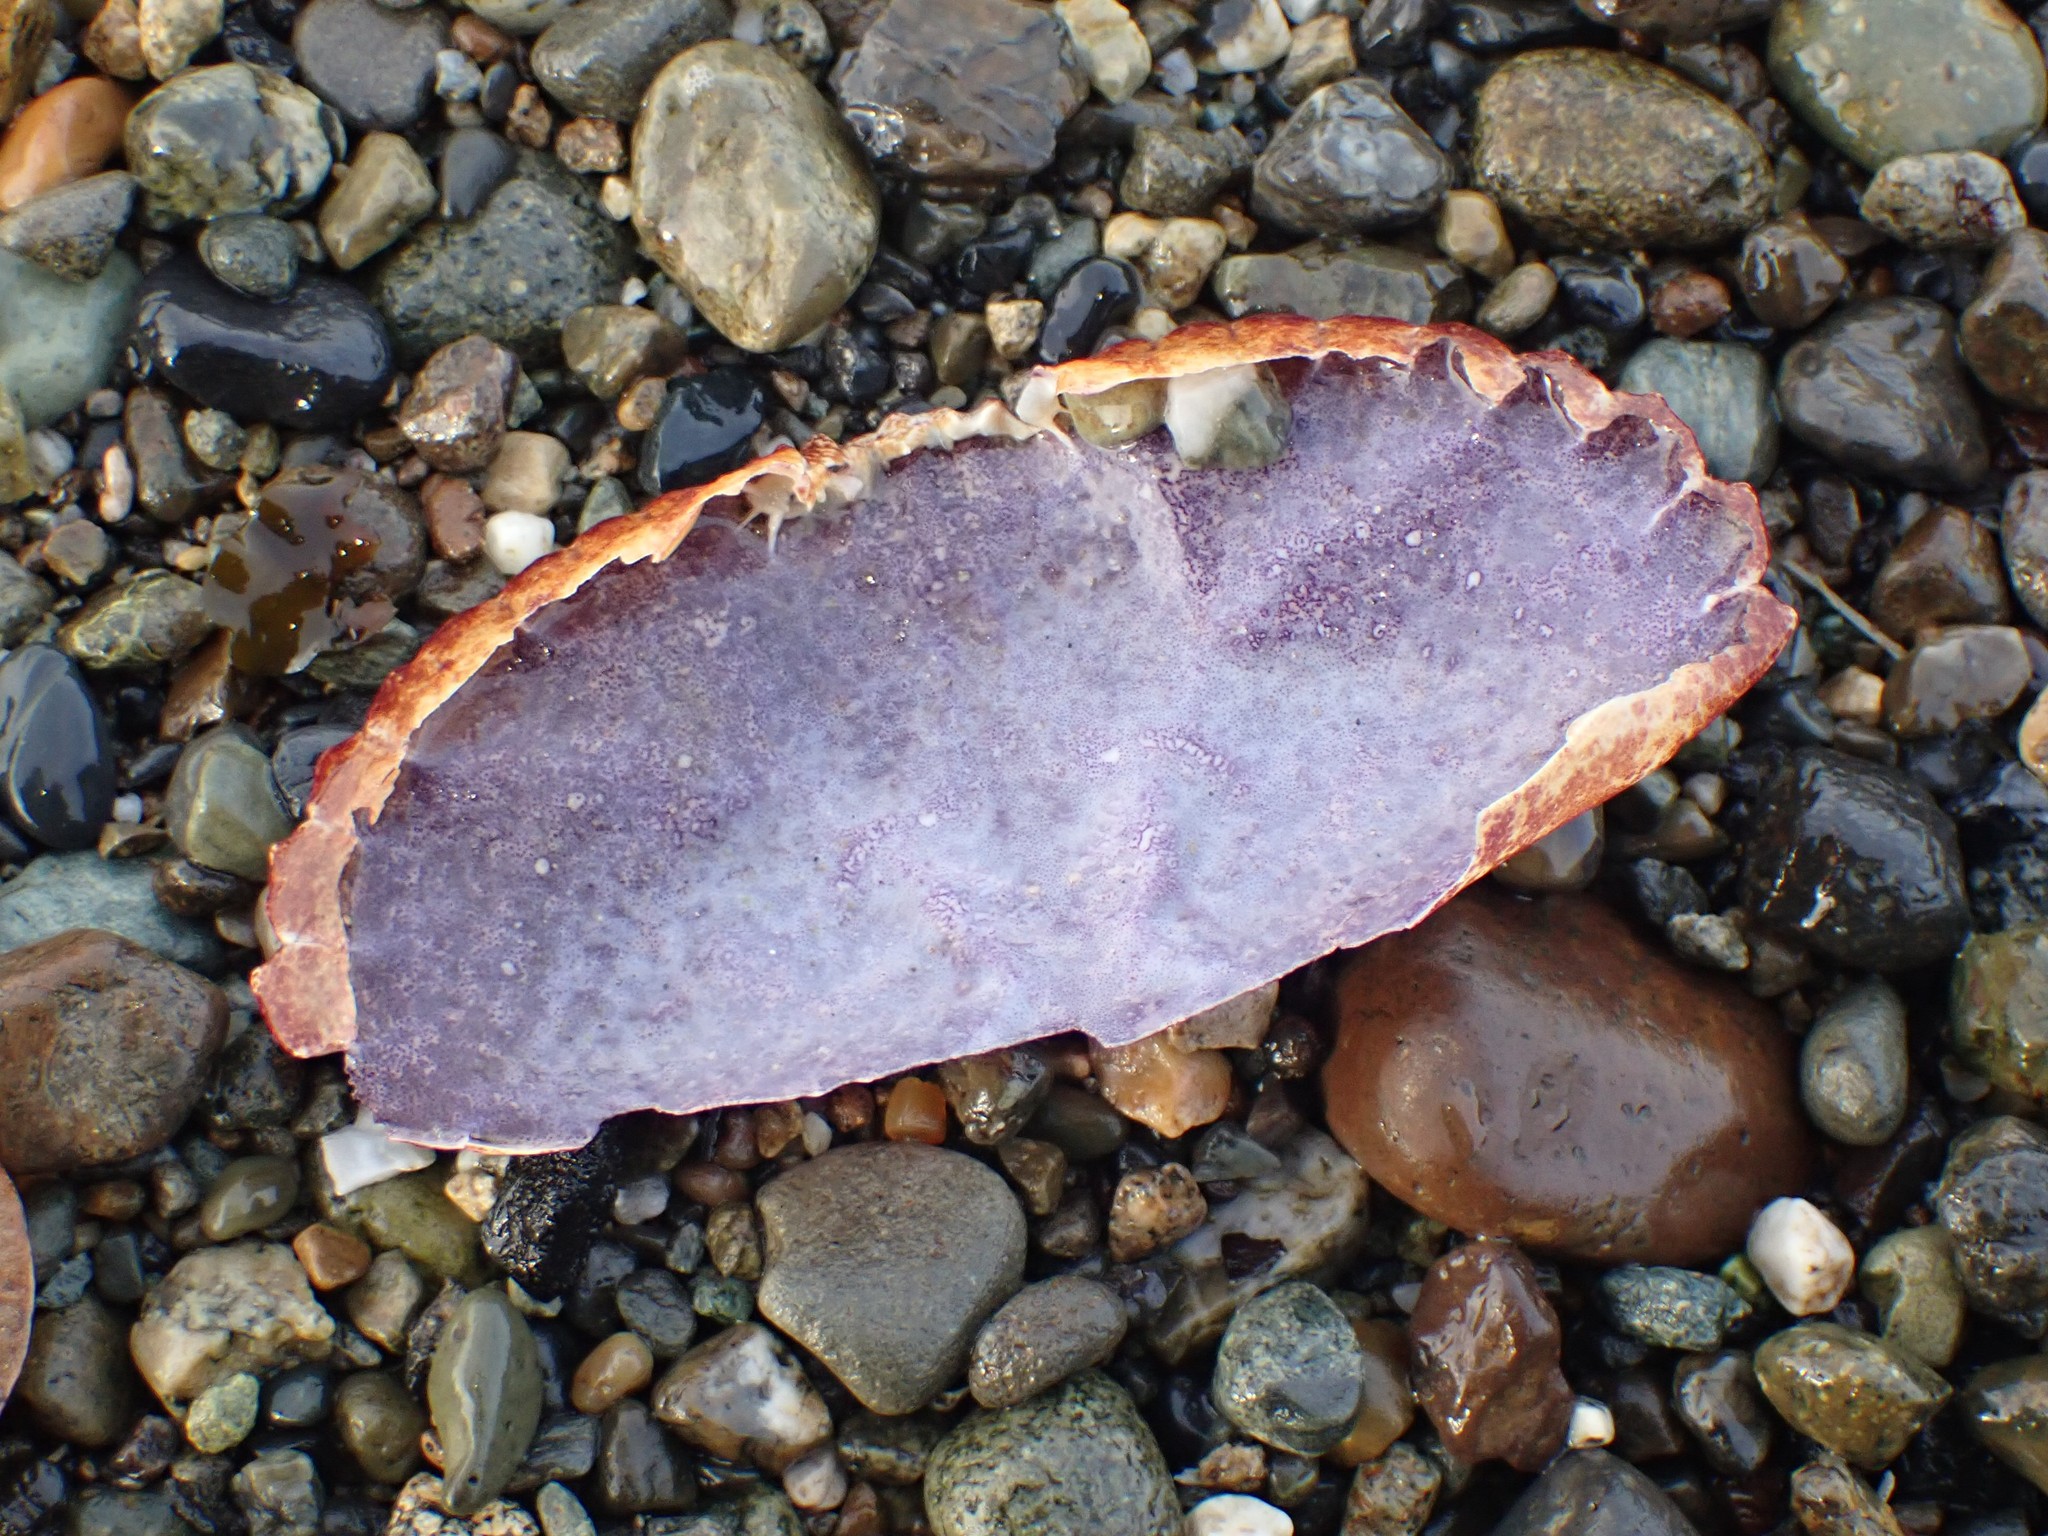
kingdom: Animalia
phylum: Arthropoda
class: Malacostraca
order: Decapoda
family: Cancridae
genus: Cancer
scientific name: Cancer productus
